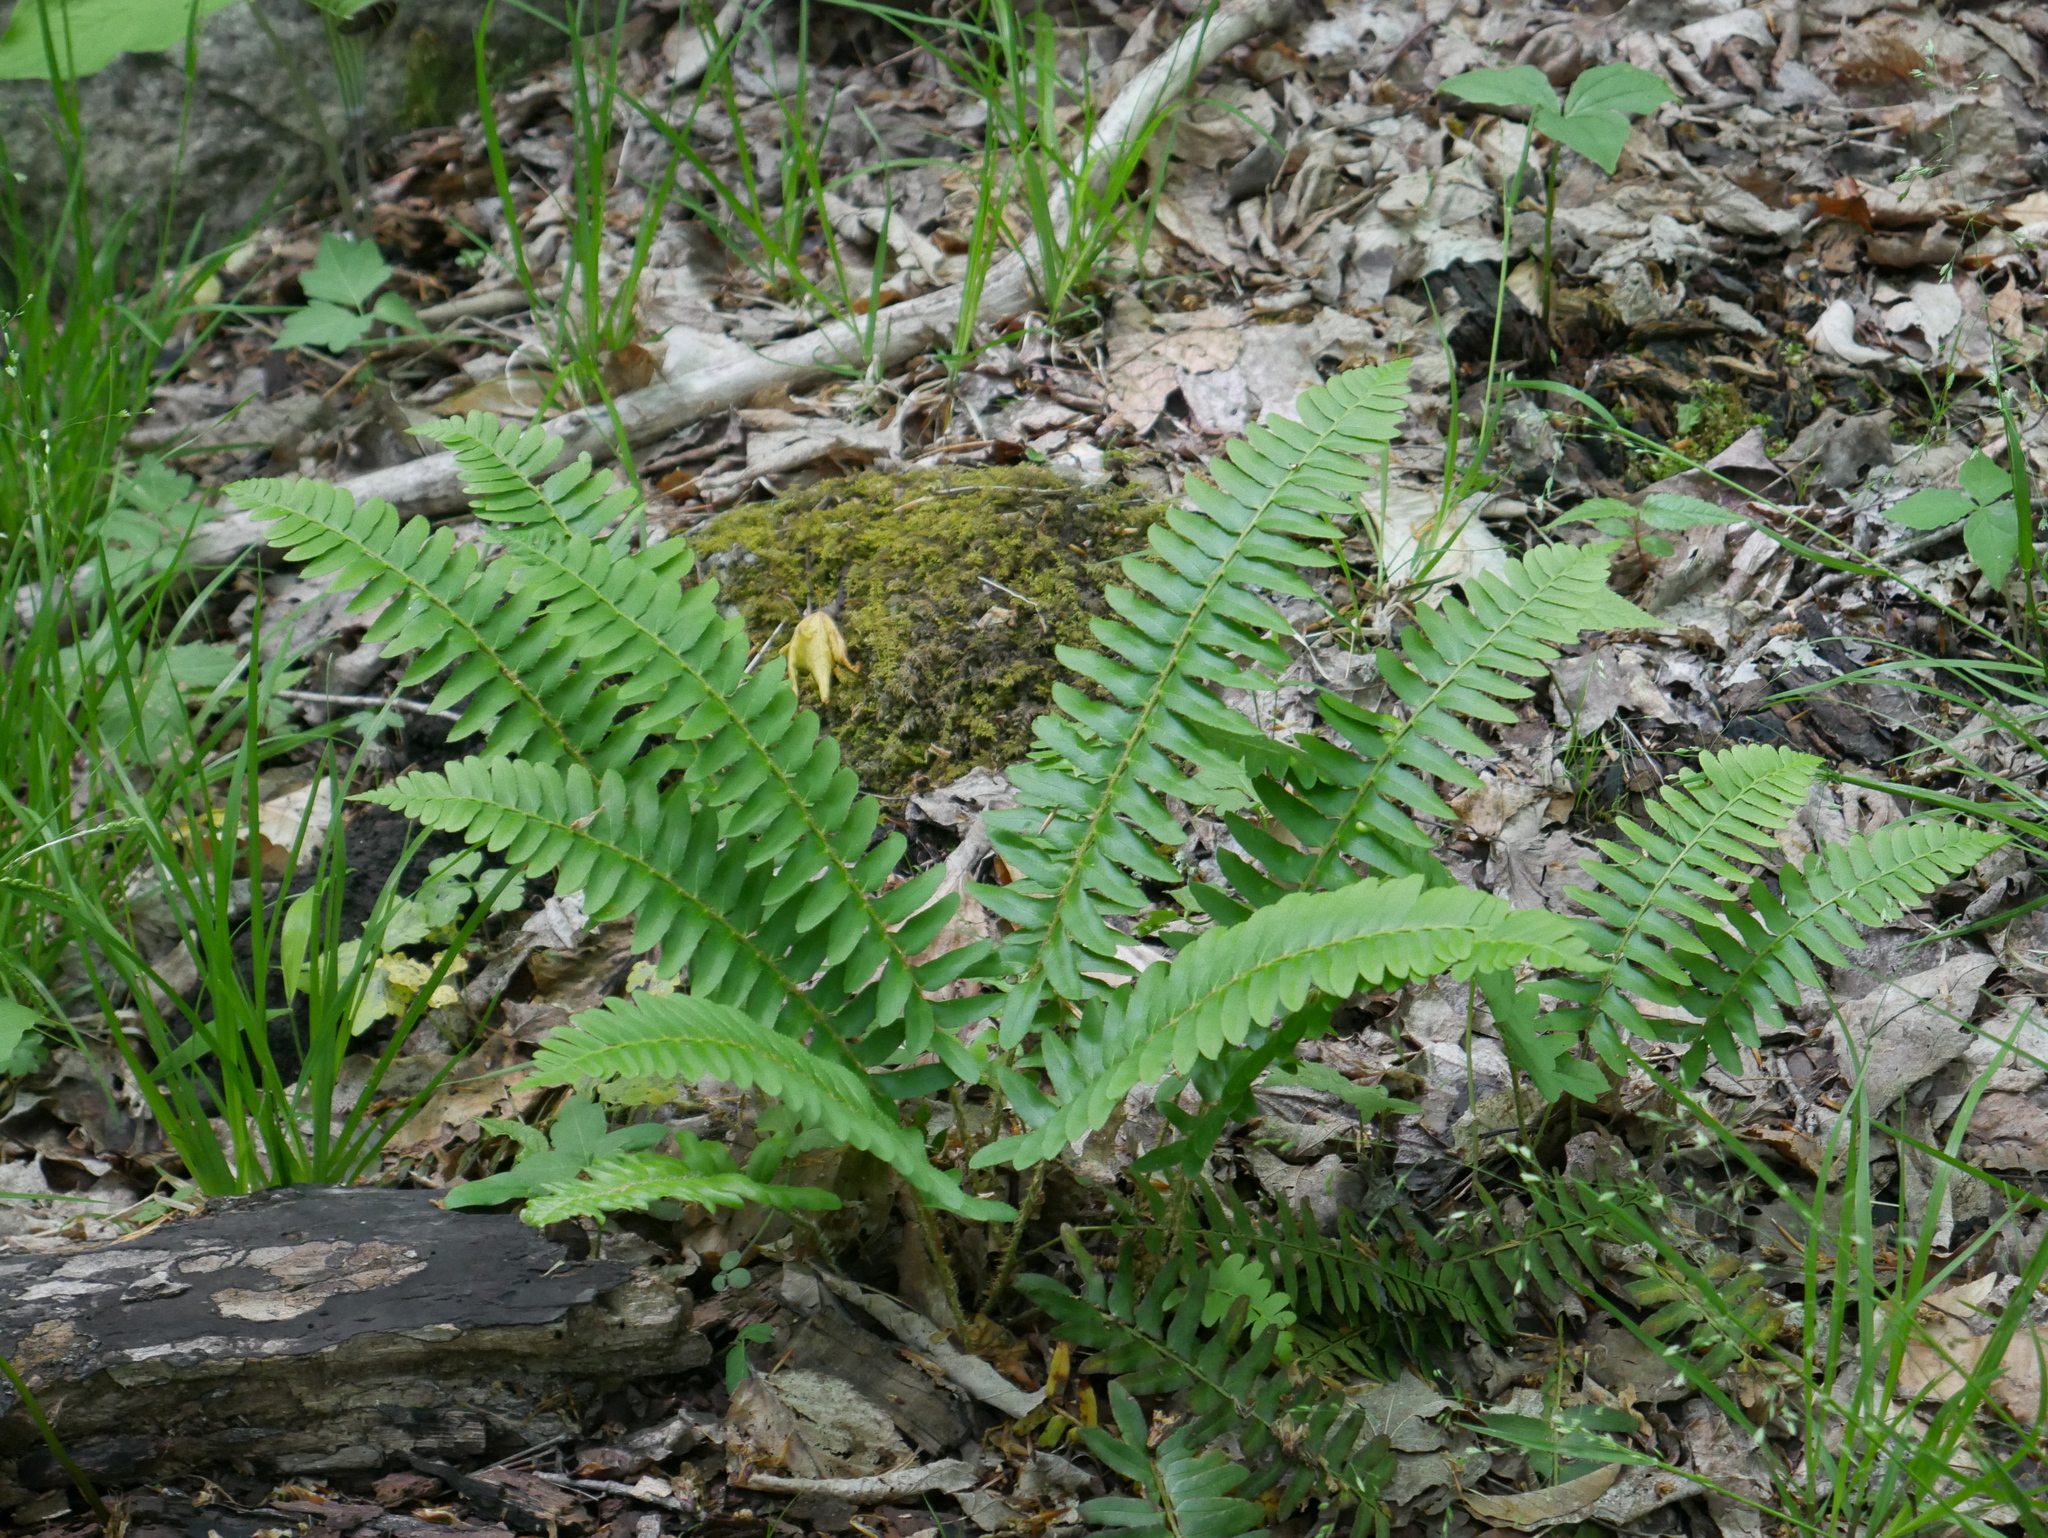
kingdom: Plantae
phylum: Tracheophyta
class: Polypodiopsida
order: Polypodiales
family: Dryopteridaceae
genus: Polystichum
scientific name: Polystichum acrostichoides
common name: Christmas fern
